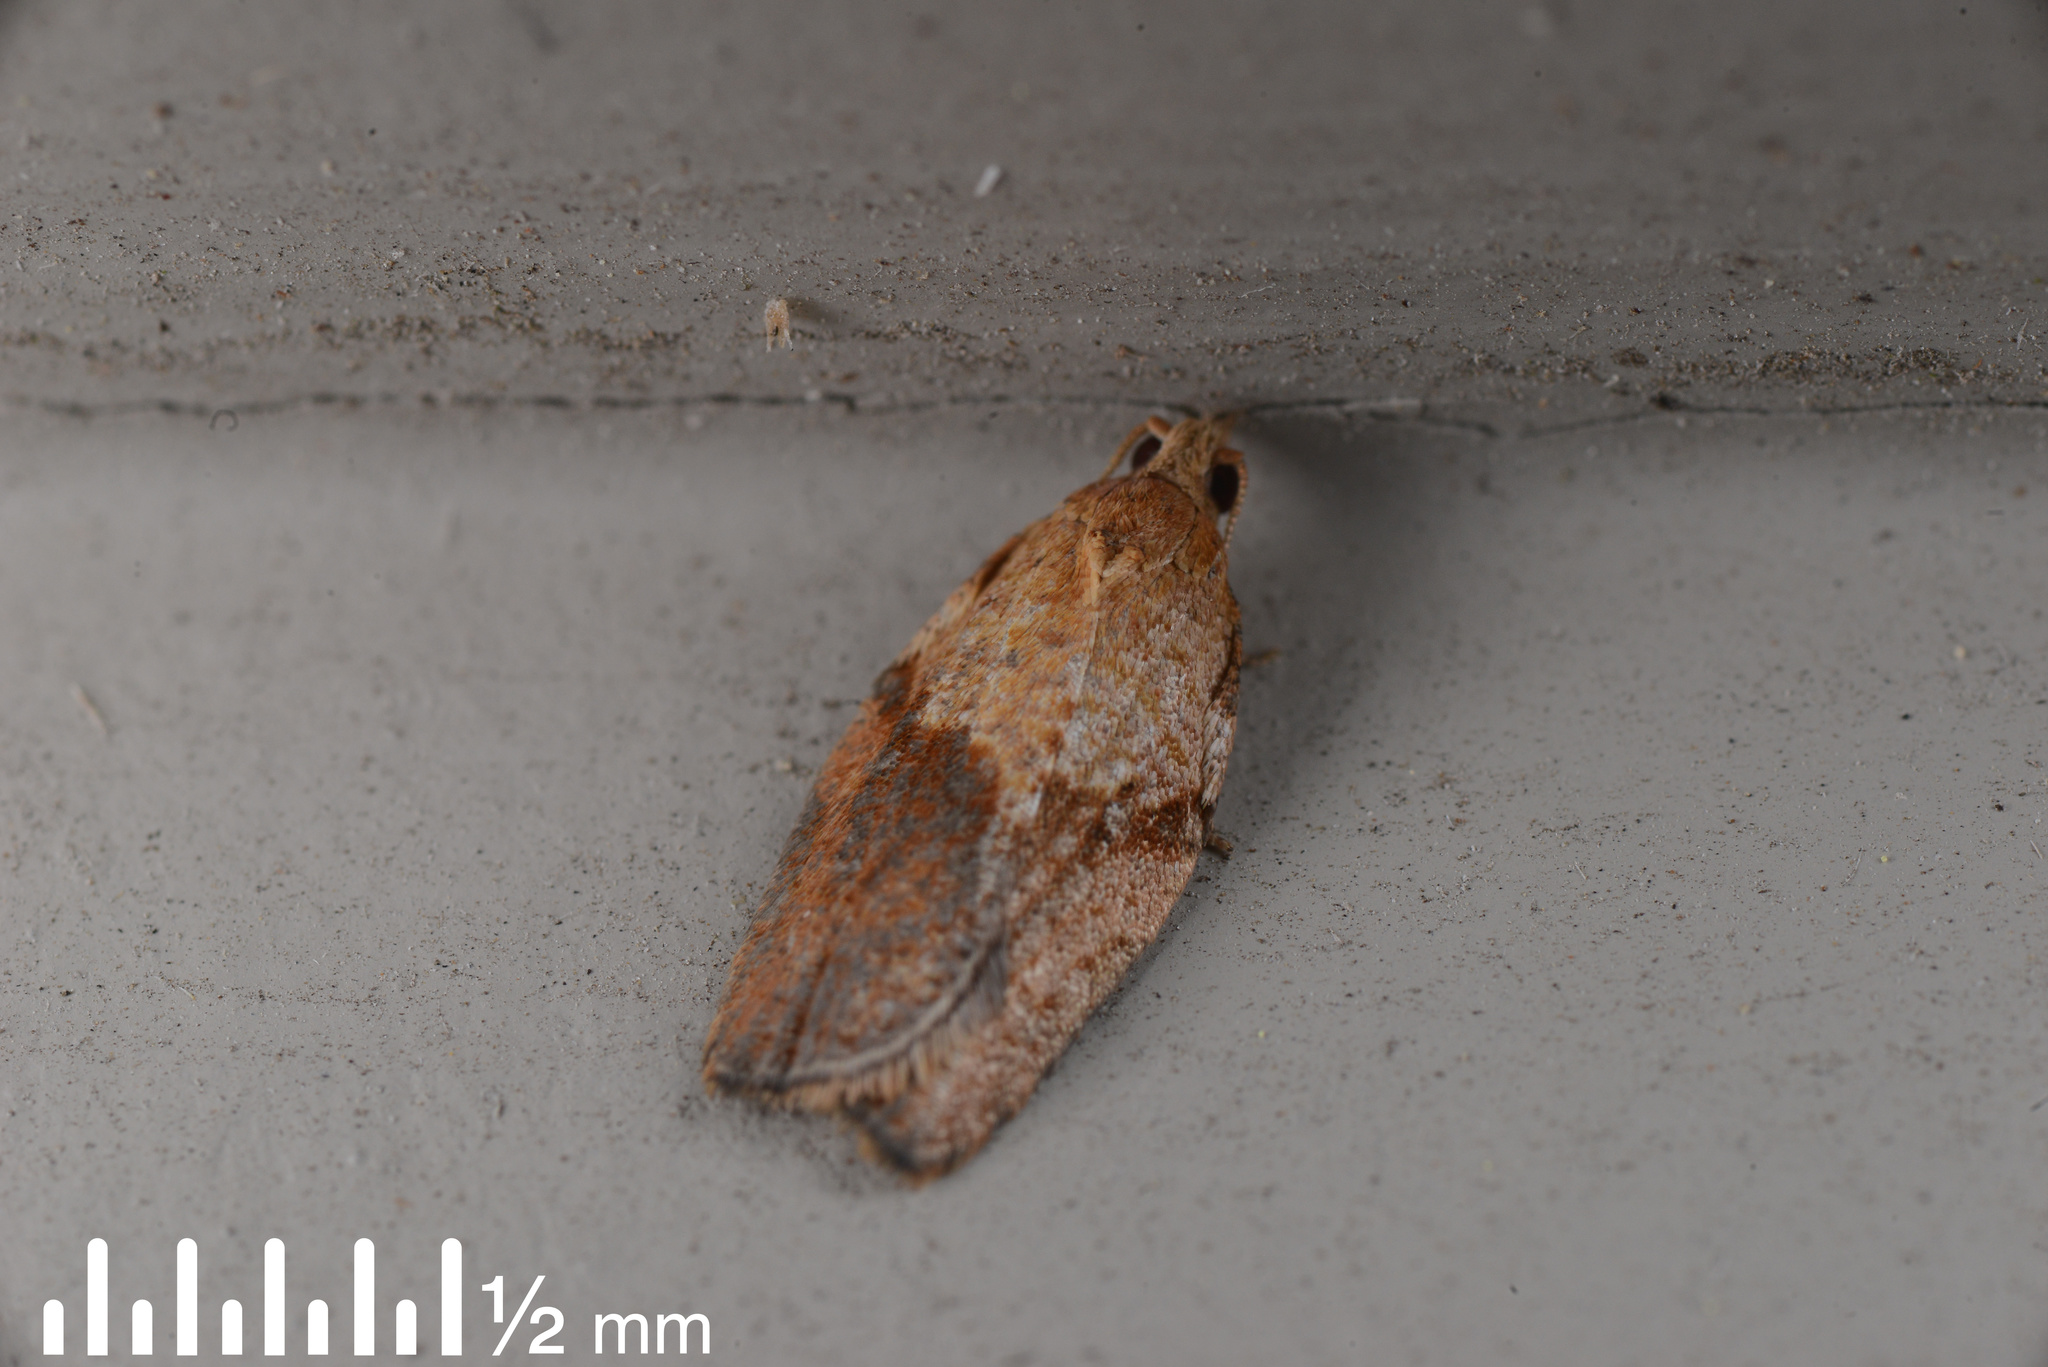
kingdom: Animalia
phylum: Arthropoda
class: Insecta
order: Lepidoptera
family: Tortricidae
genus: Epiphyas
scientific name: Epiphyas postvittana
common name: Light brown apple moth
